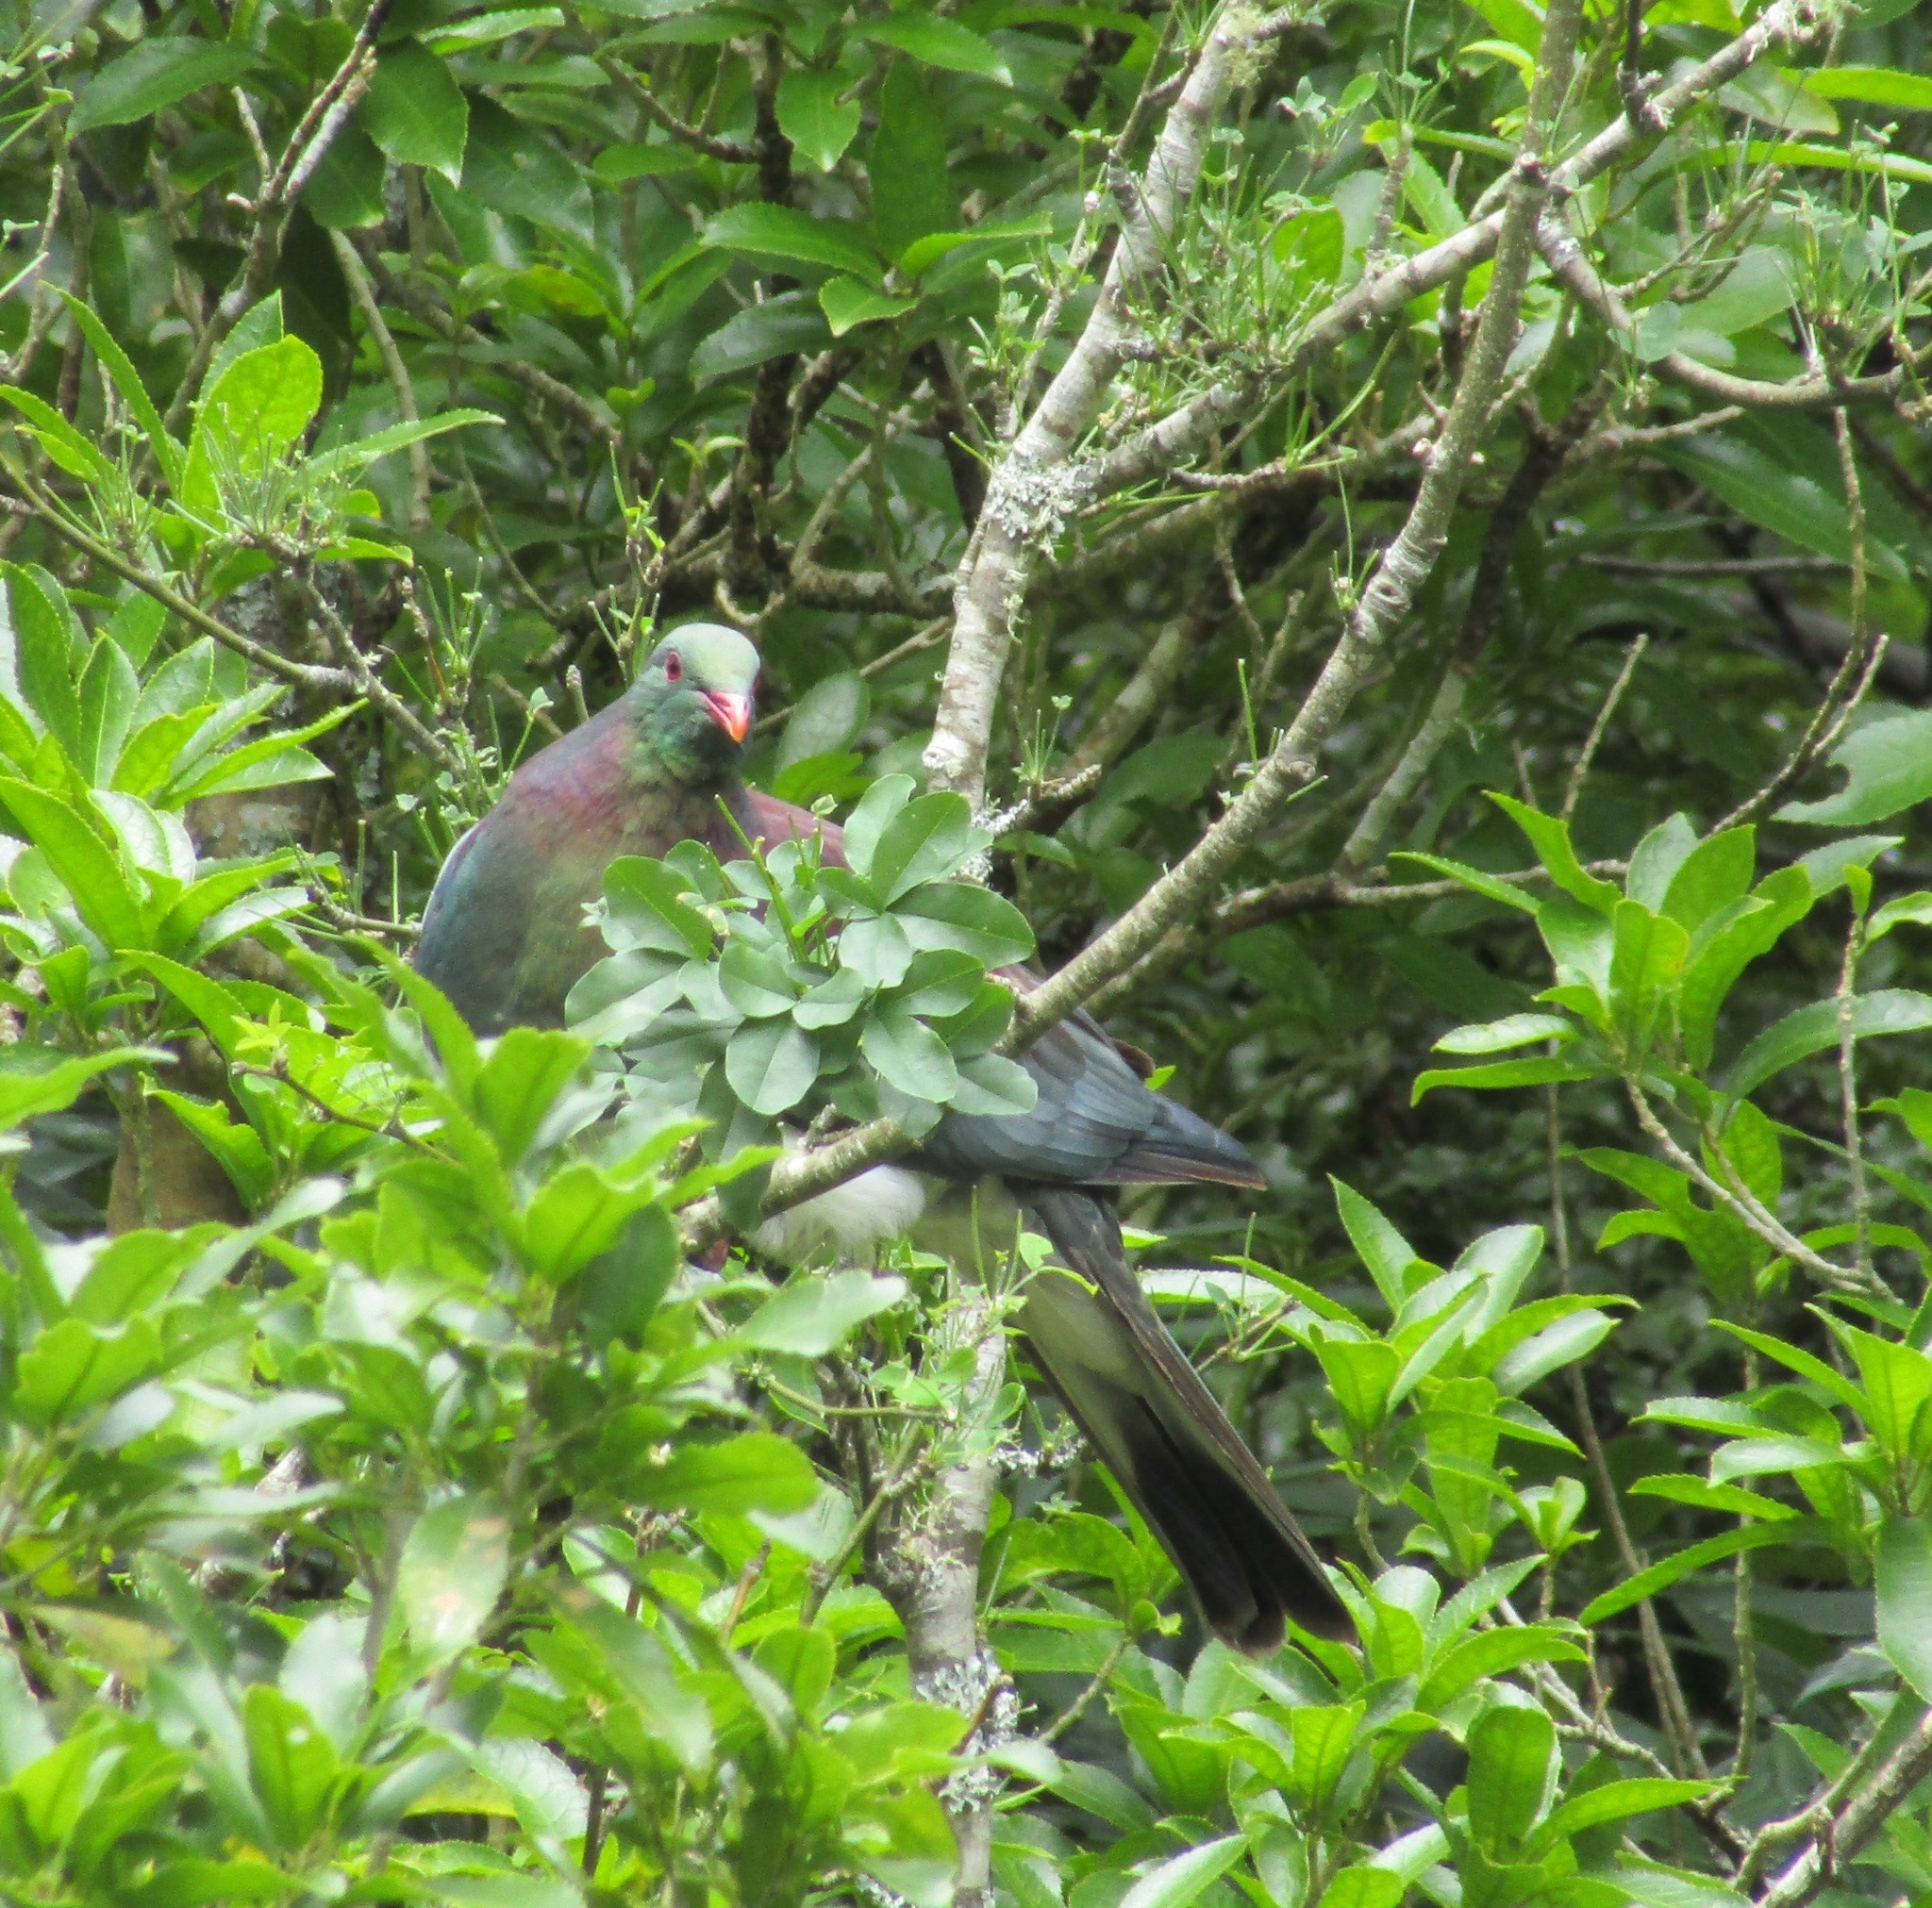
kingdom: Animalia
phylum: Chordata
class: Aves
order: Columbiformes
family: Columbidae
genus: Hemiphaga
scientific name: Hemiphaga novaeseelandiae
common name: New zealand pigeon
